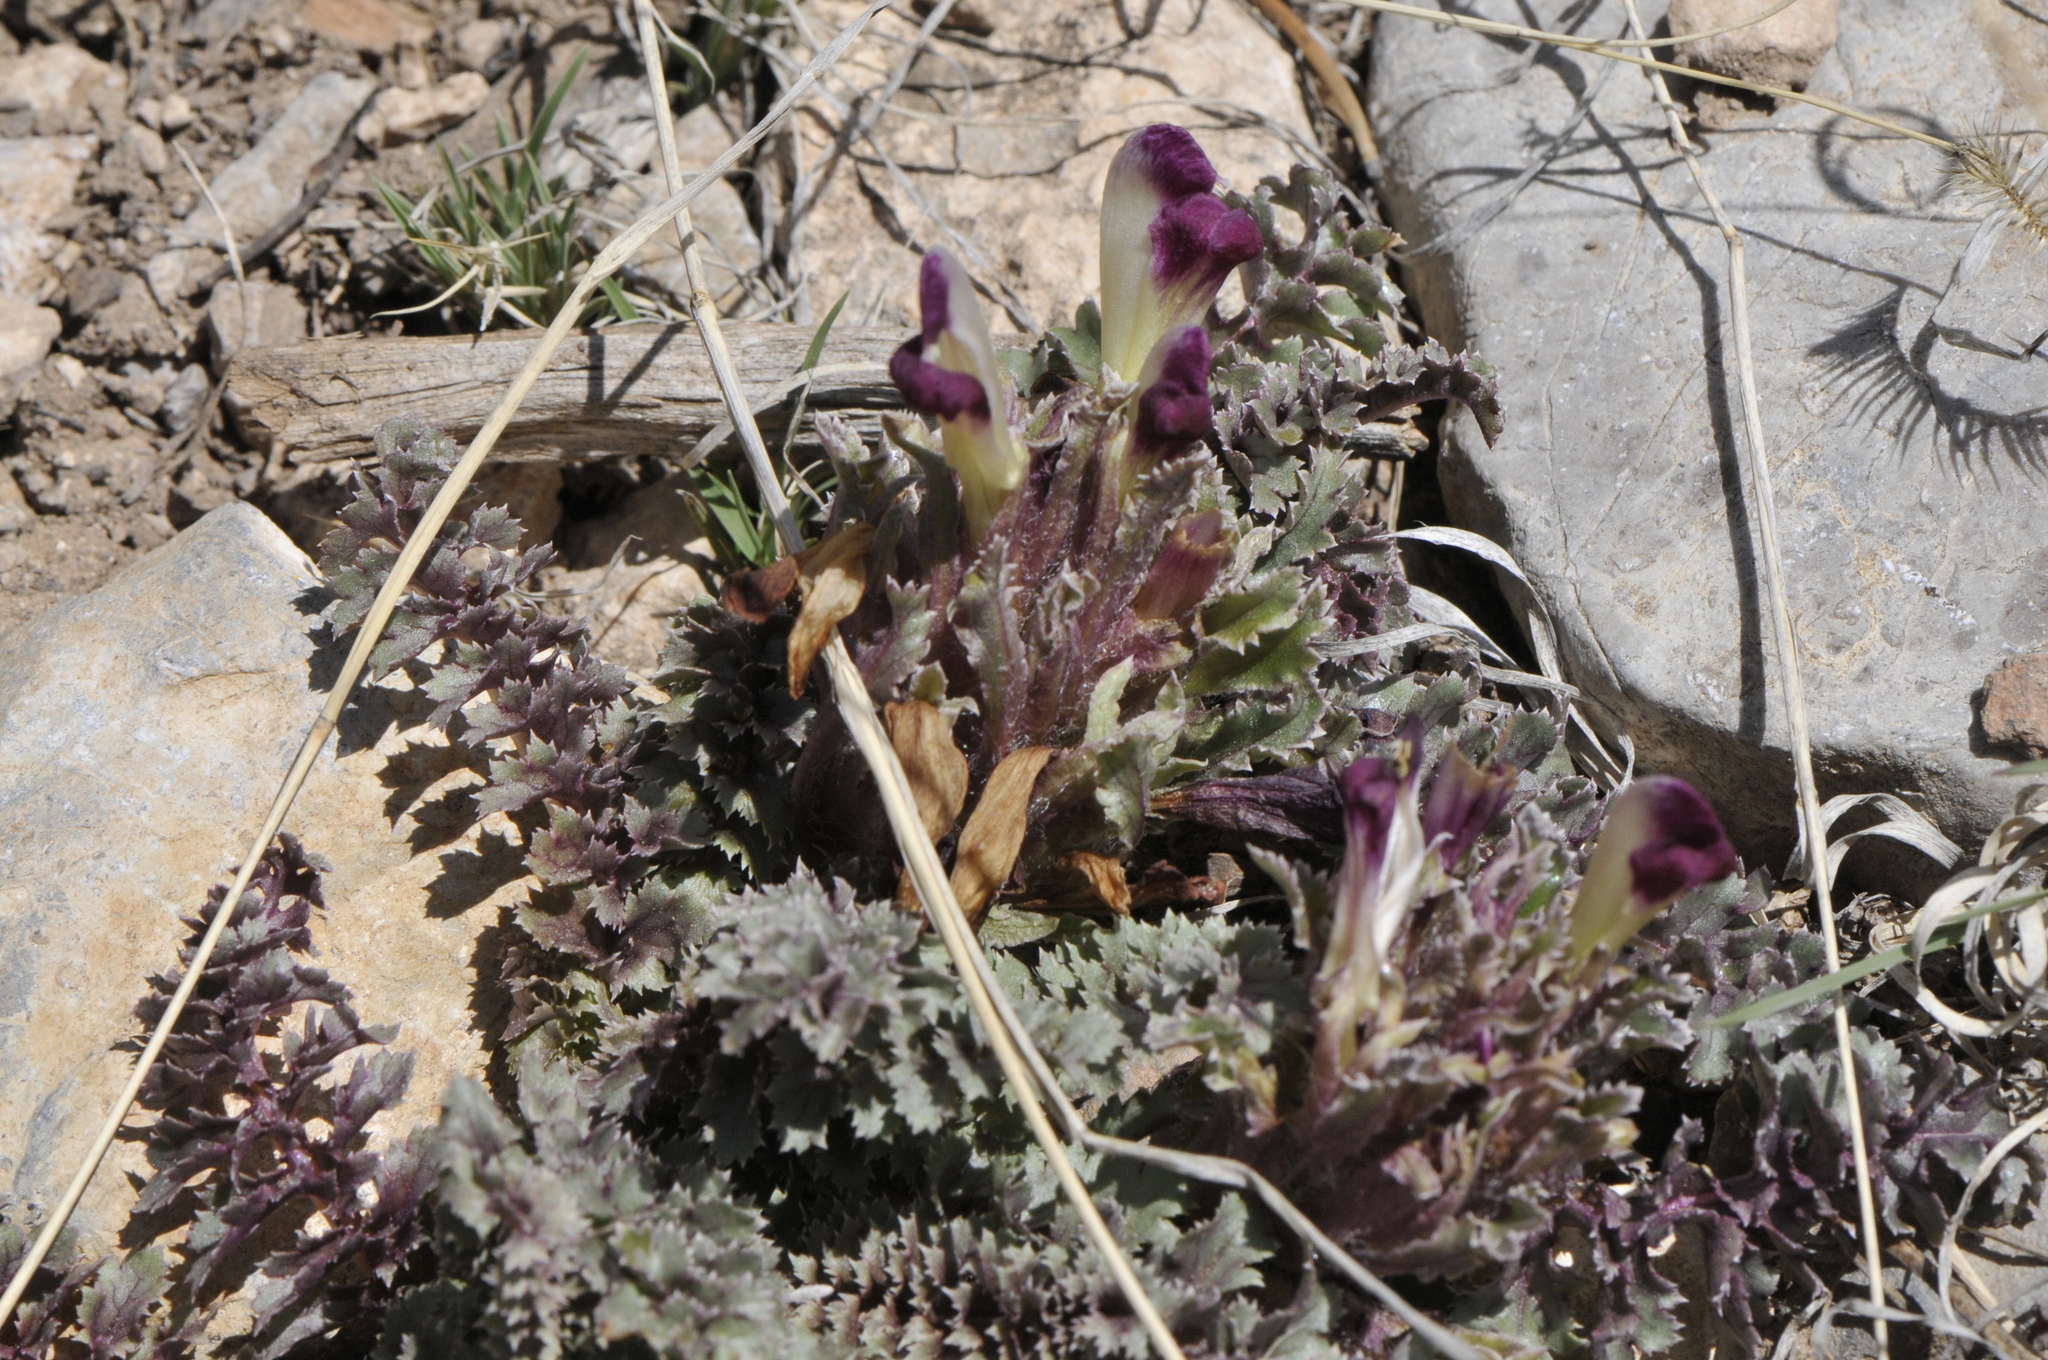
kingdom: Plantae
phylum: Tracheophyta
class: Magnoliopsida
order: Lamiales
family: Orobanchaceae
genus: Pedicularis
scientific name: Pedicularis centranthera
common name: Dwarf lousewort
